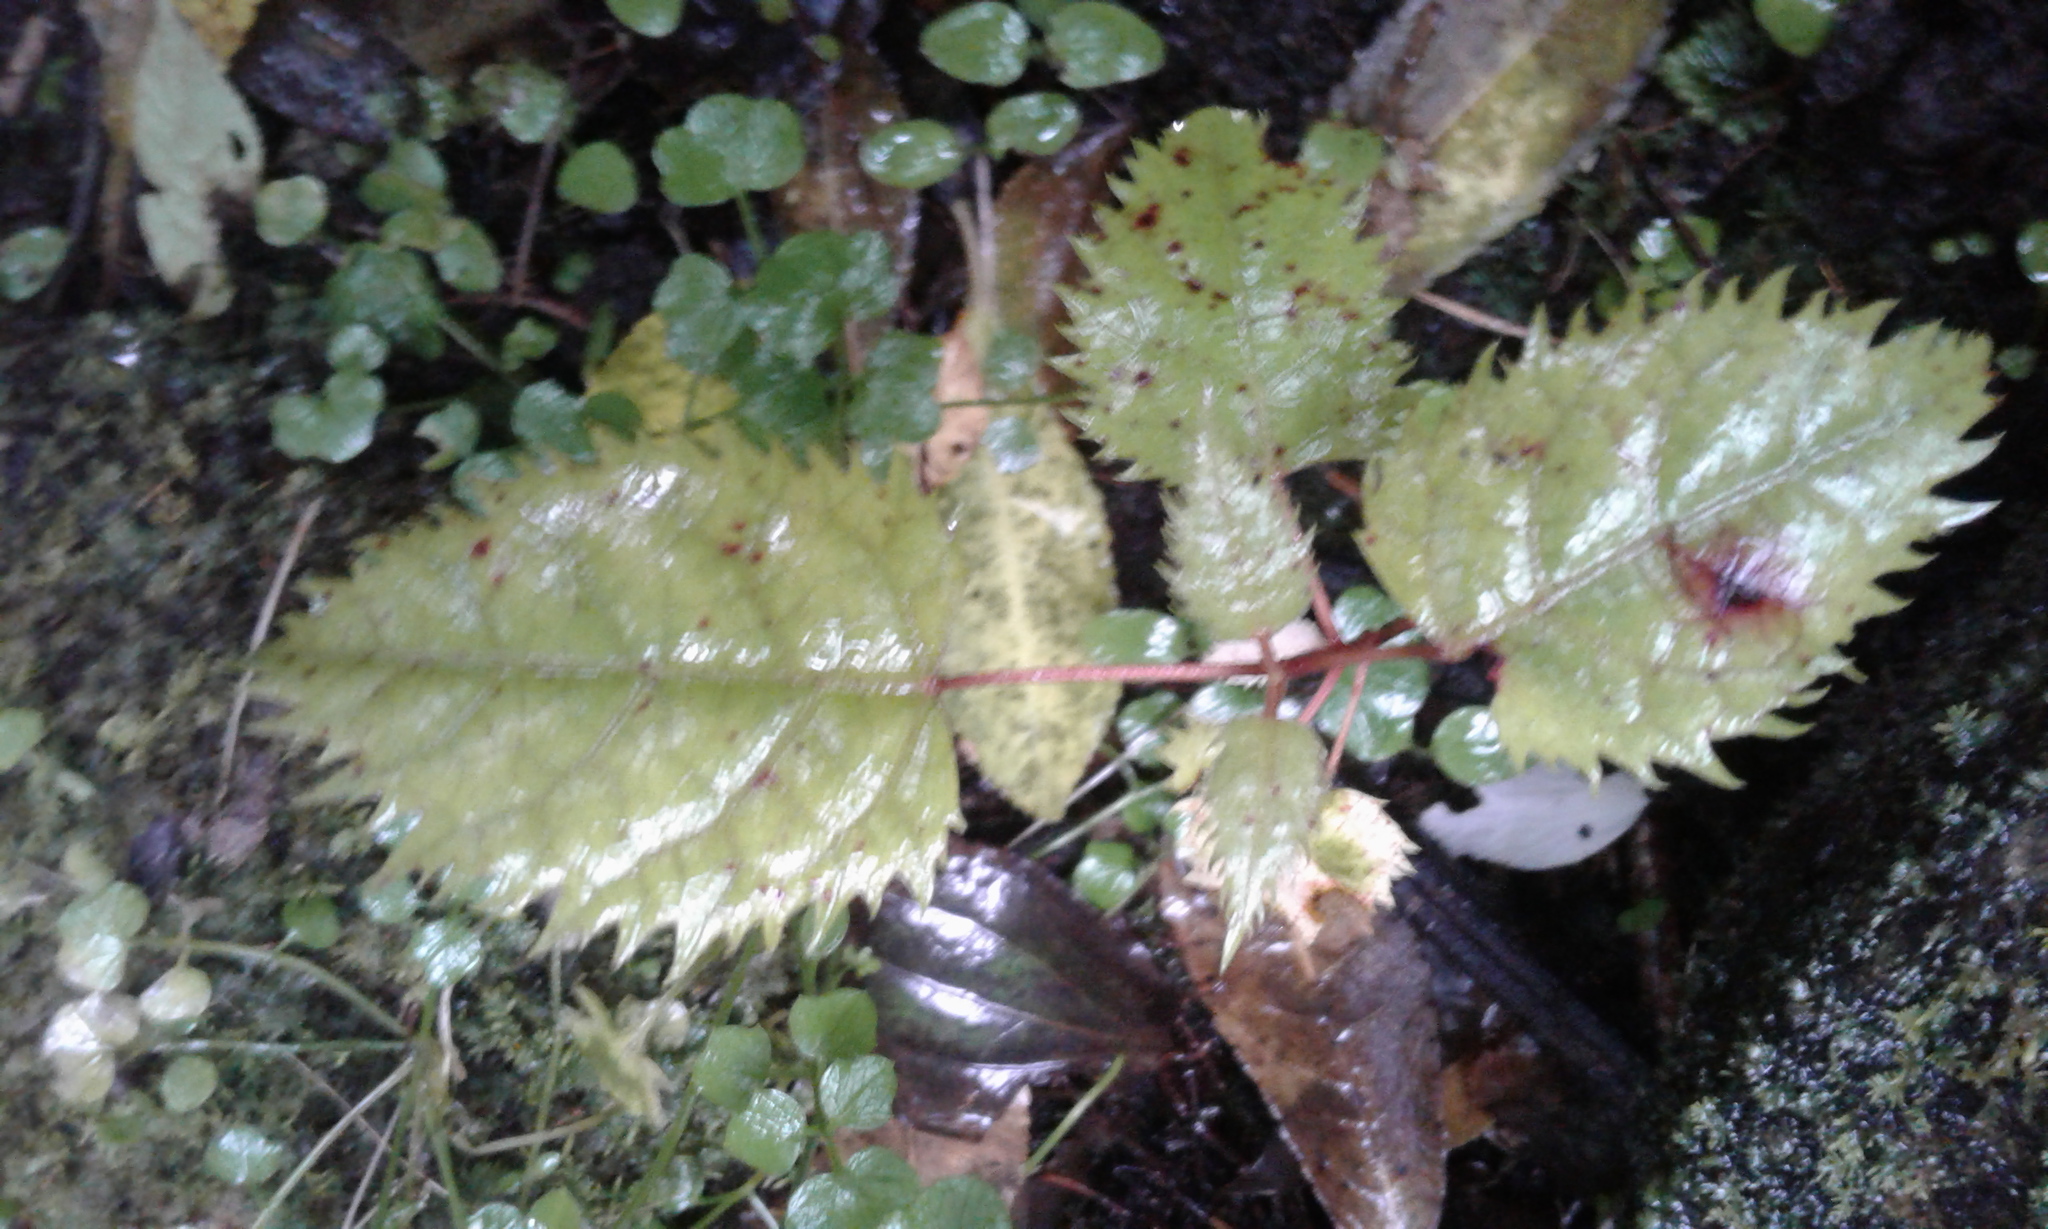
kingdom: Plantae
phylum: Tracheophyta
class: Magnoliopsida
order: Oxalidales
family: Elaeocarpaceae
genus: Aristotelia
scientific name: Aristotelia serrata
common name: New zealand wineberry
